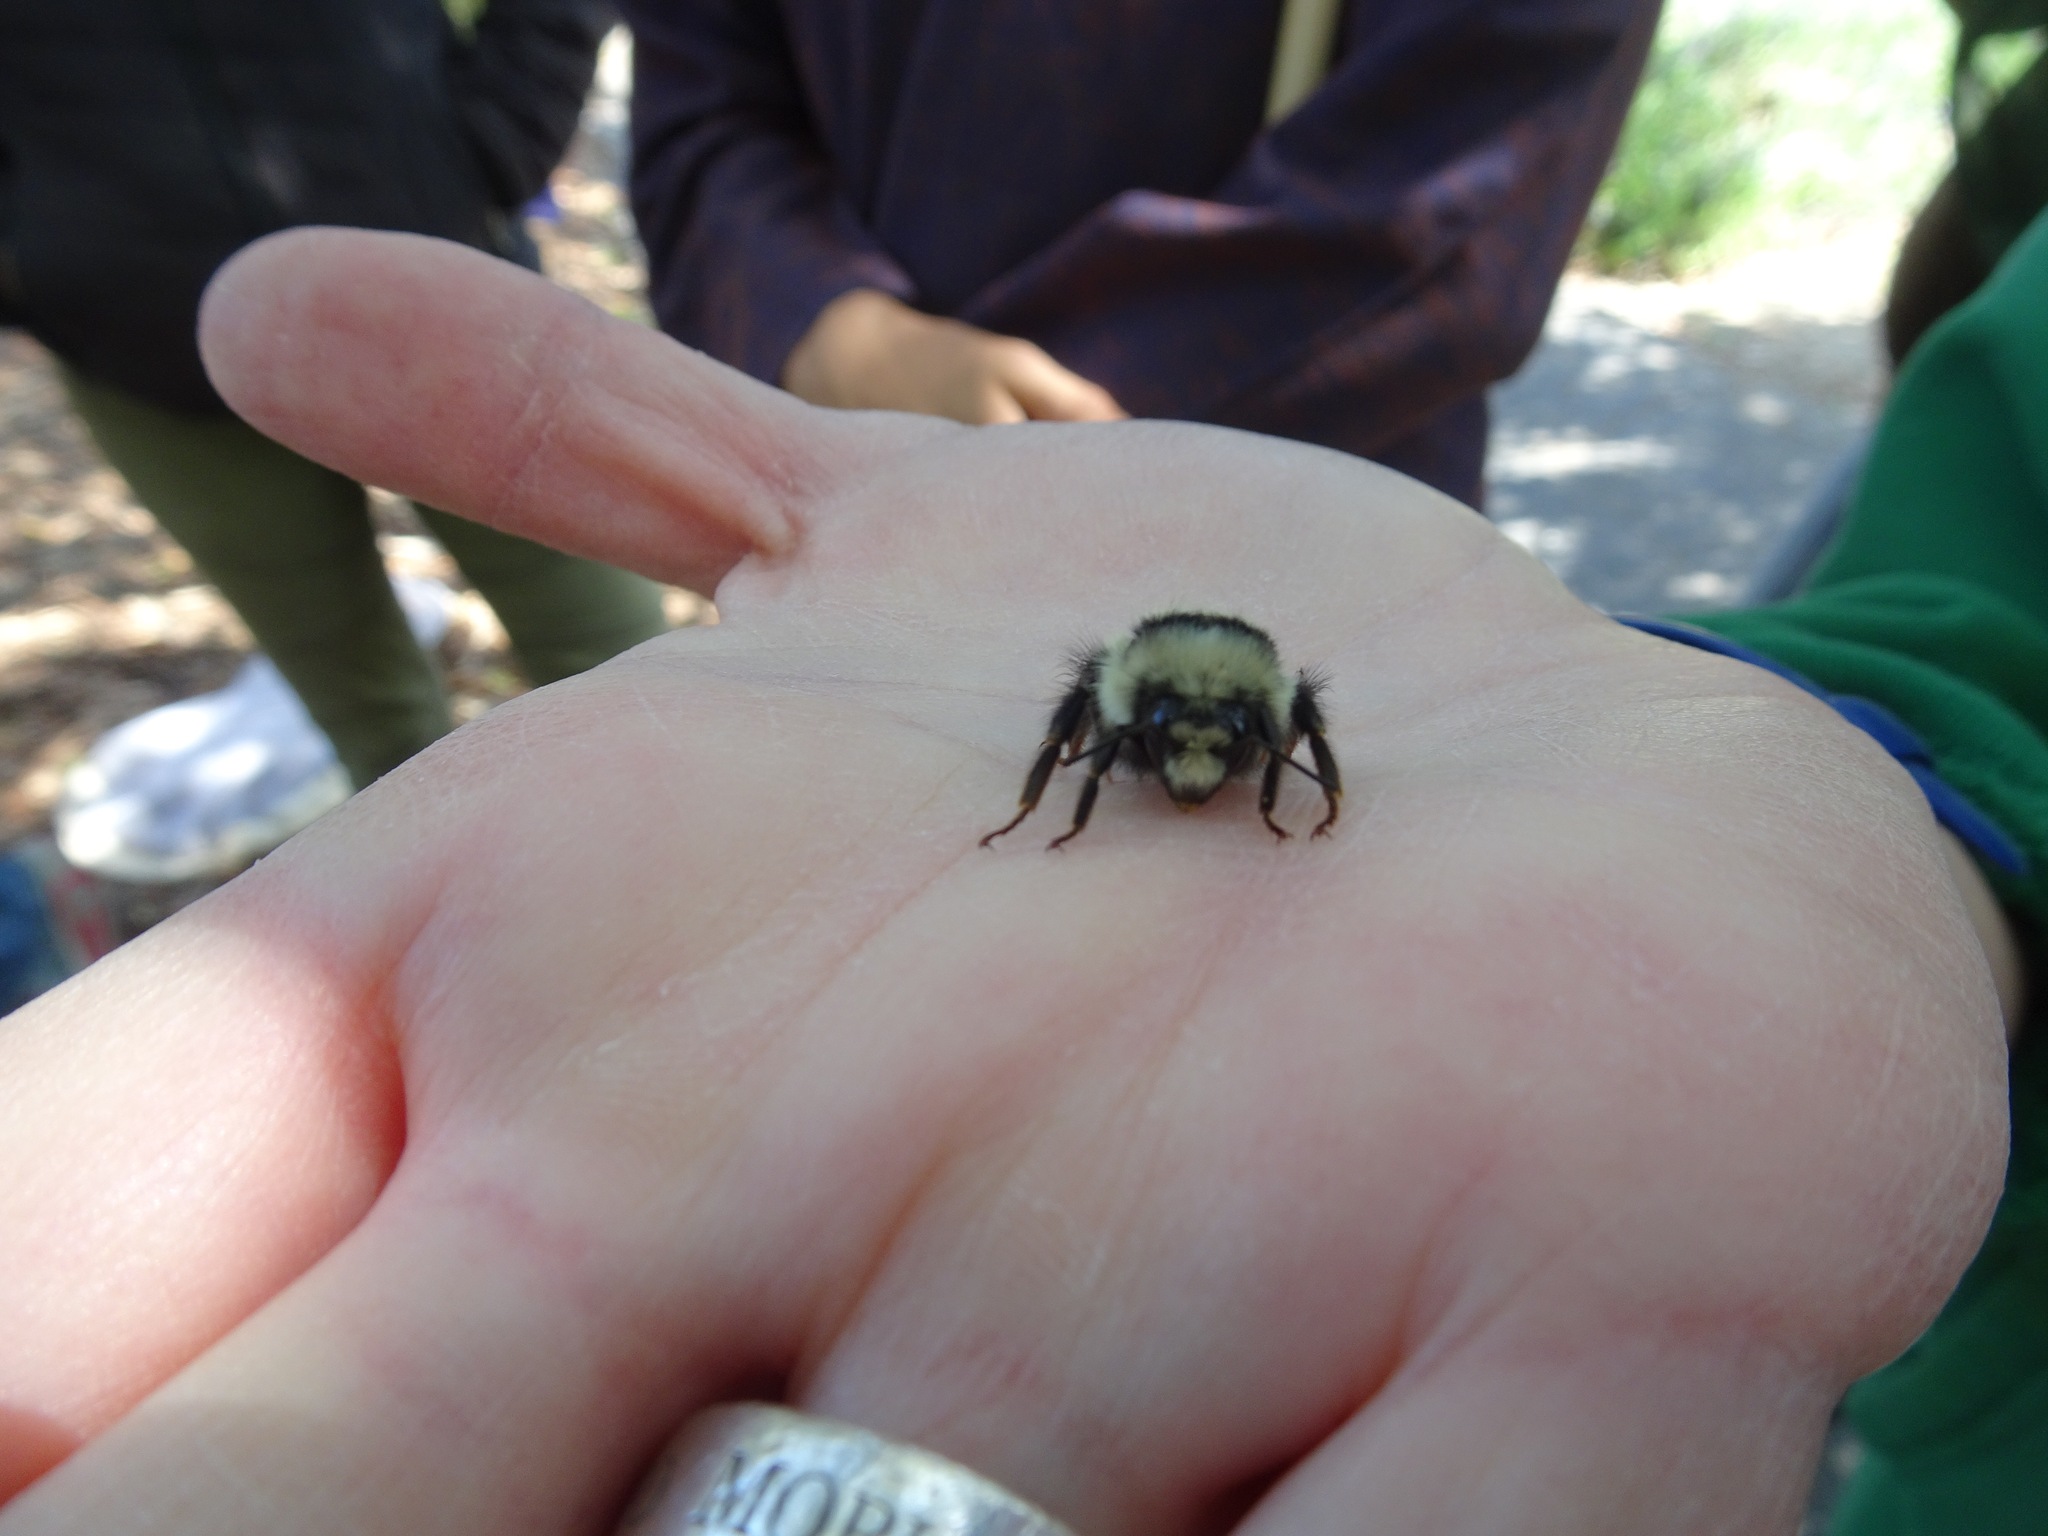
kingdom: Animalia
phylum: Arthropoda
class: Insecta
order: Hymenoptera
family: Apidae
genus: Bombus
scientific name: Bombus melanopygus
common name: Black tail bumble bee
